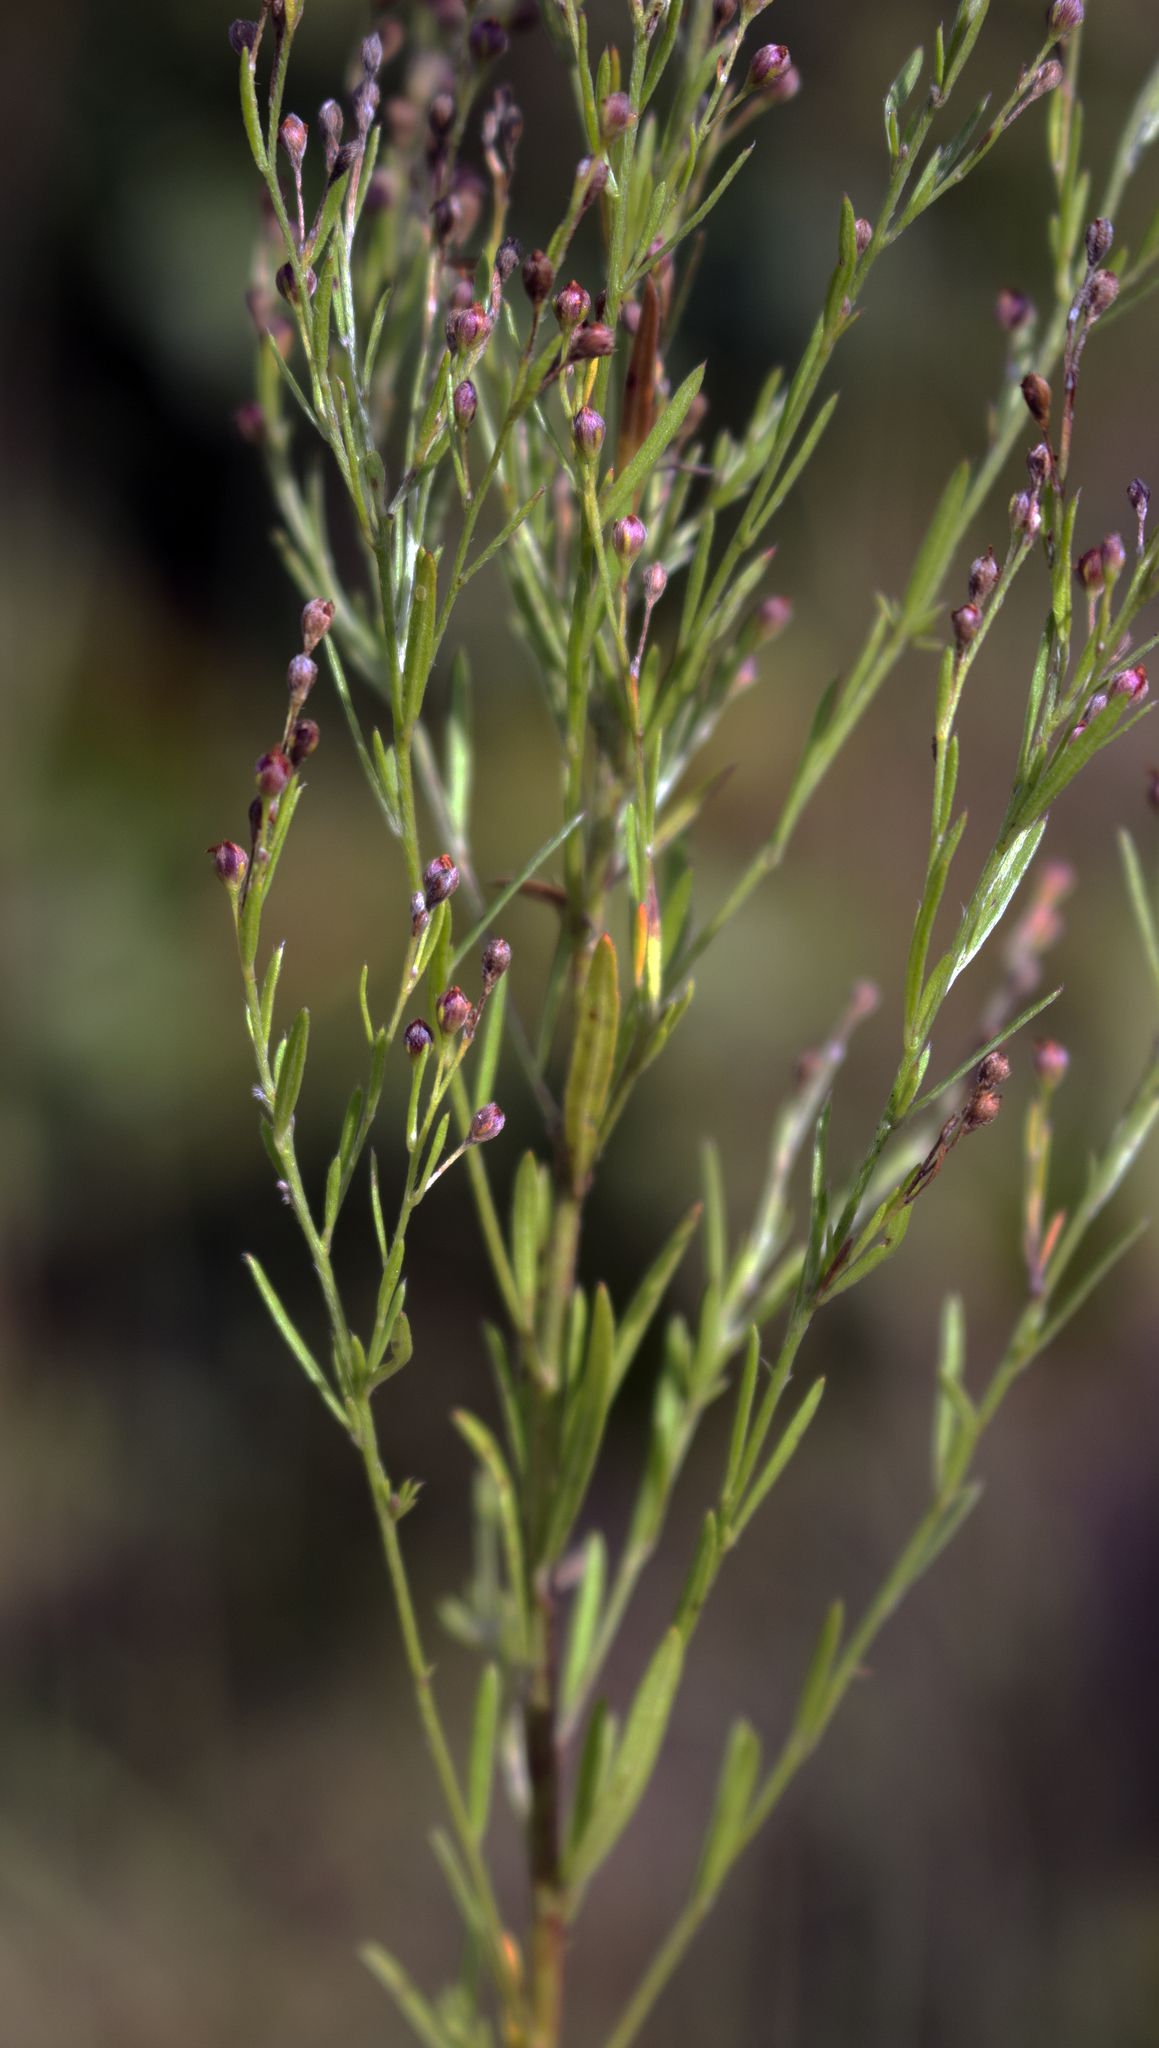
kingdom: Plantae
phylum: Tracheophyta
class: Magnoliopsida
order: Malvales
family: Cistaceae
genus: Lechea
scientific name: Lechea intermedia
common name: Intermediate pinweed
